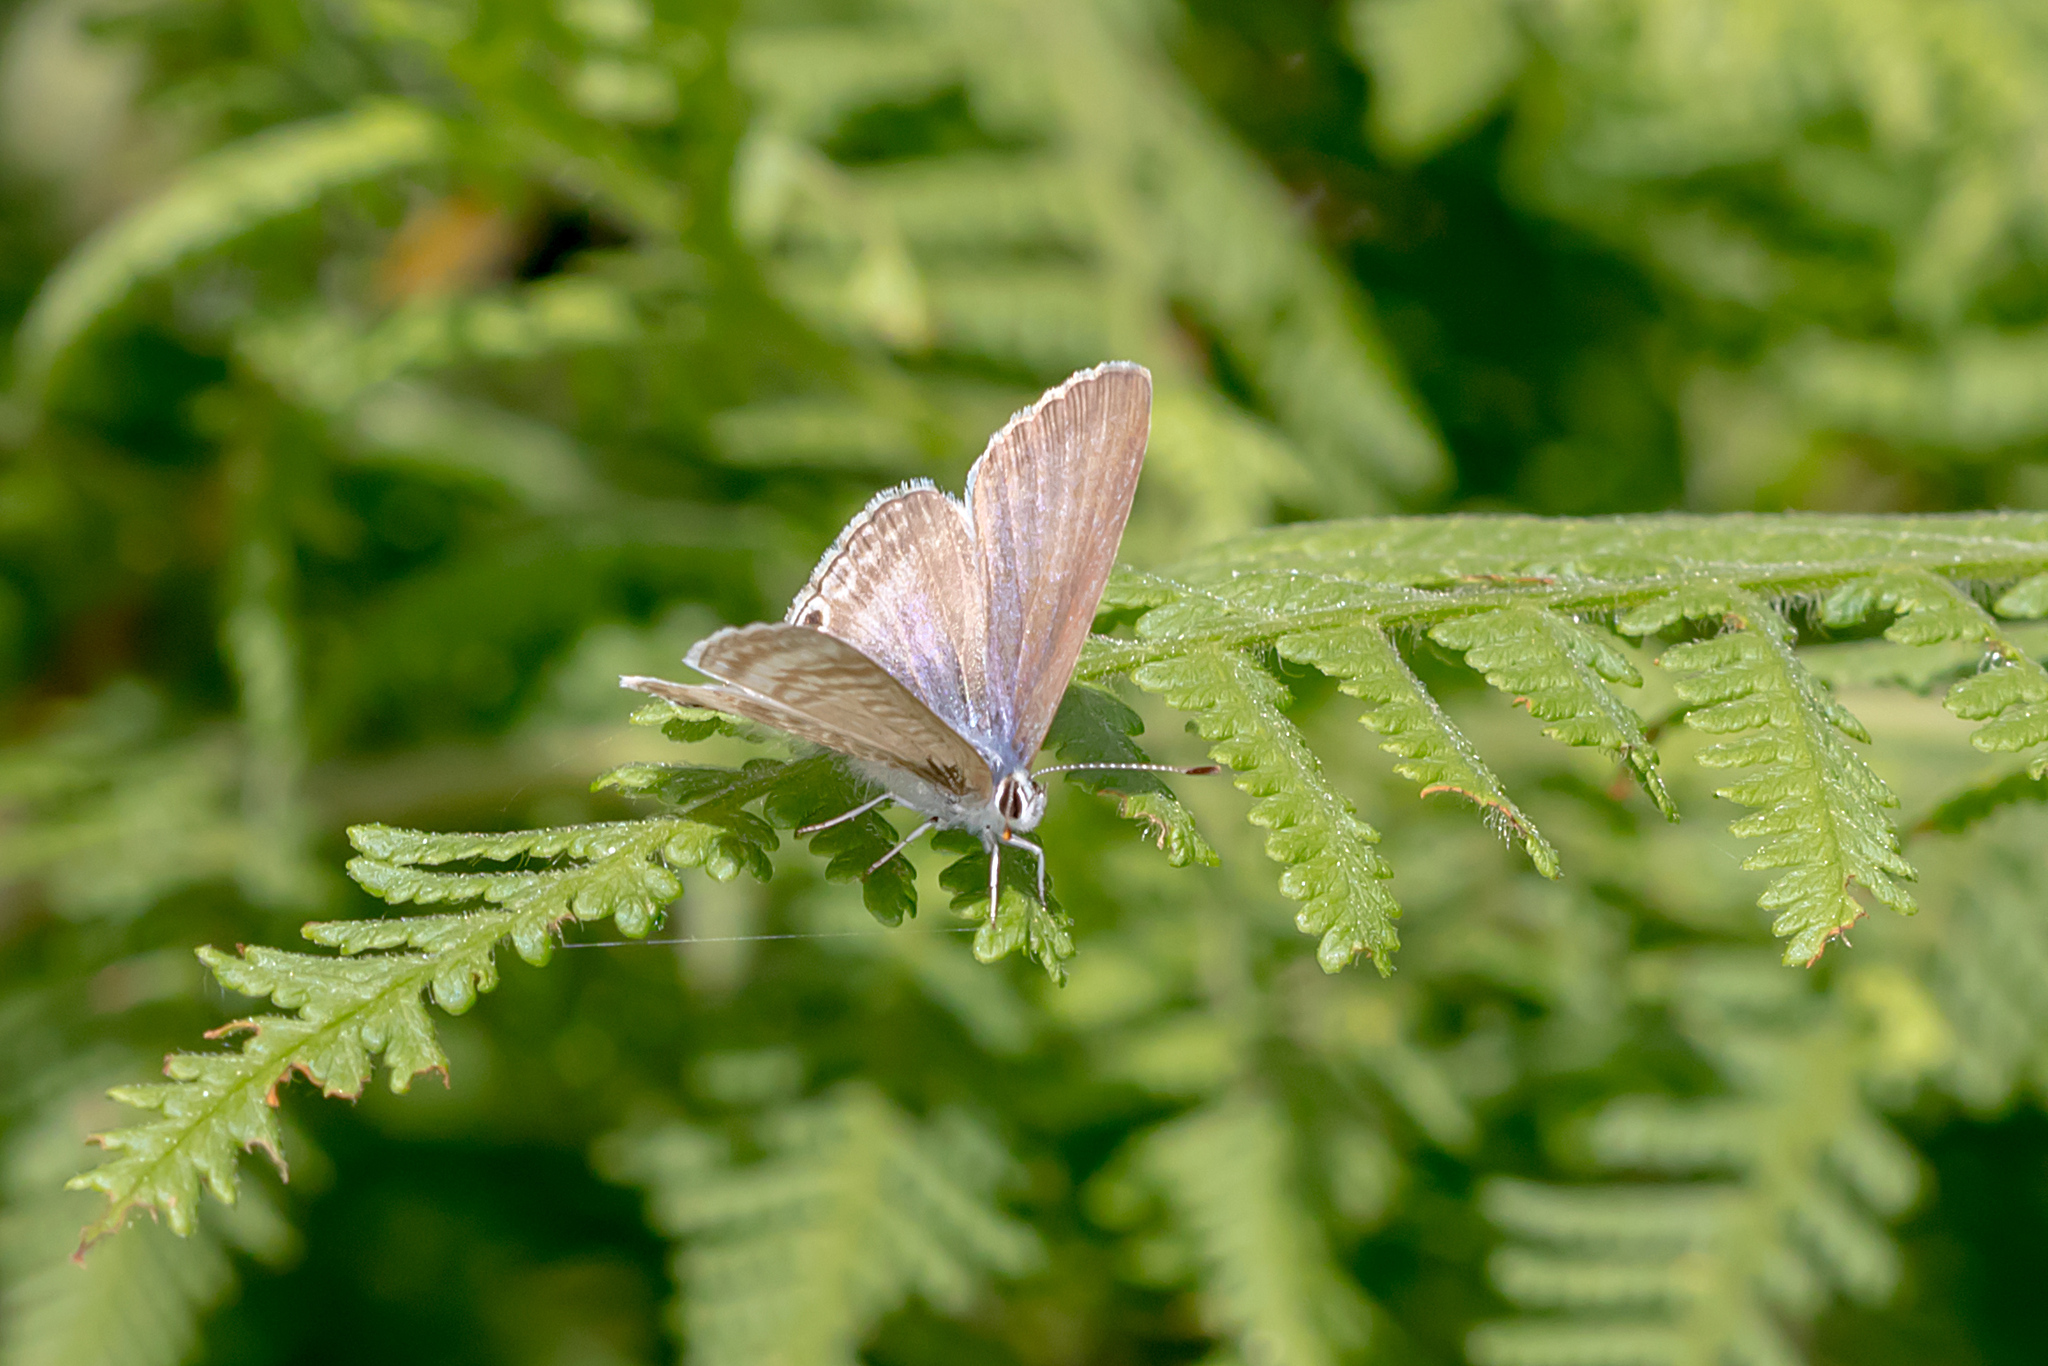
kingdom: Animalia
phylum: Arthropoda
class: Insecta
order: Lepidoptera
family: Lycaenidae
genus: Lampides
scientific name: Lampides boeticus
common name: Long-tailed blue
